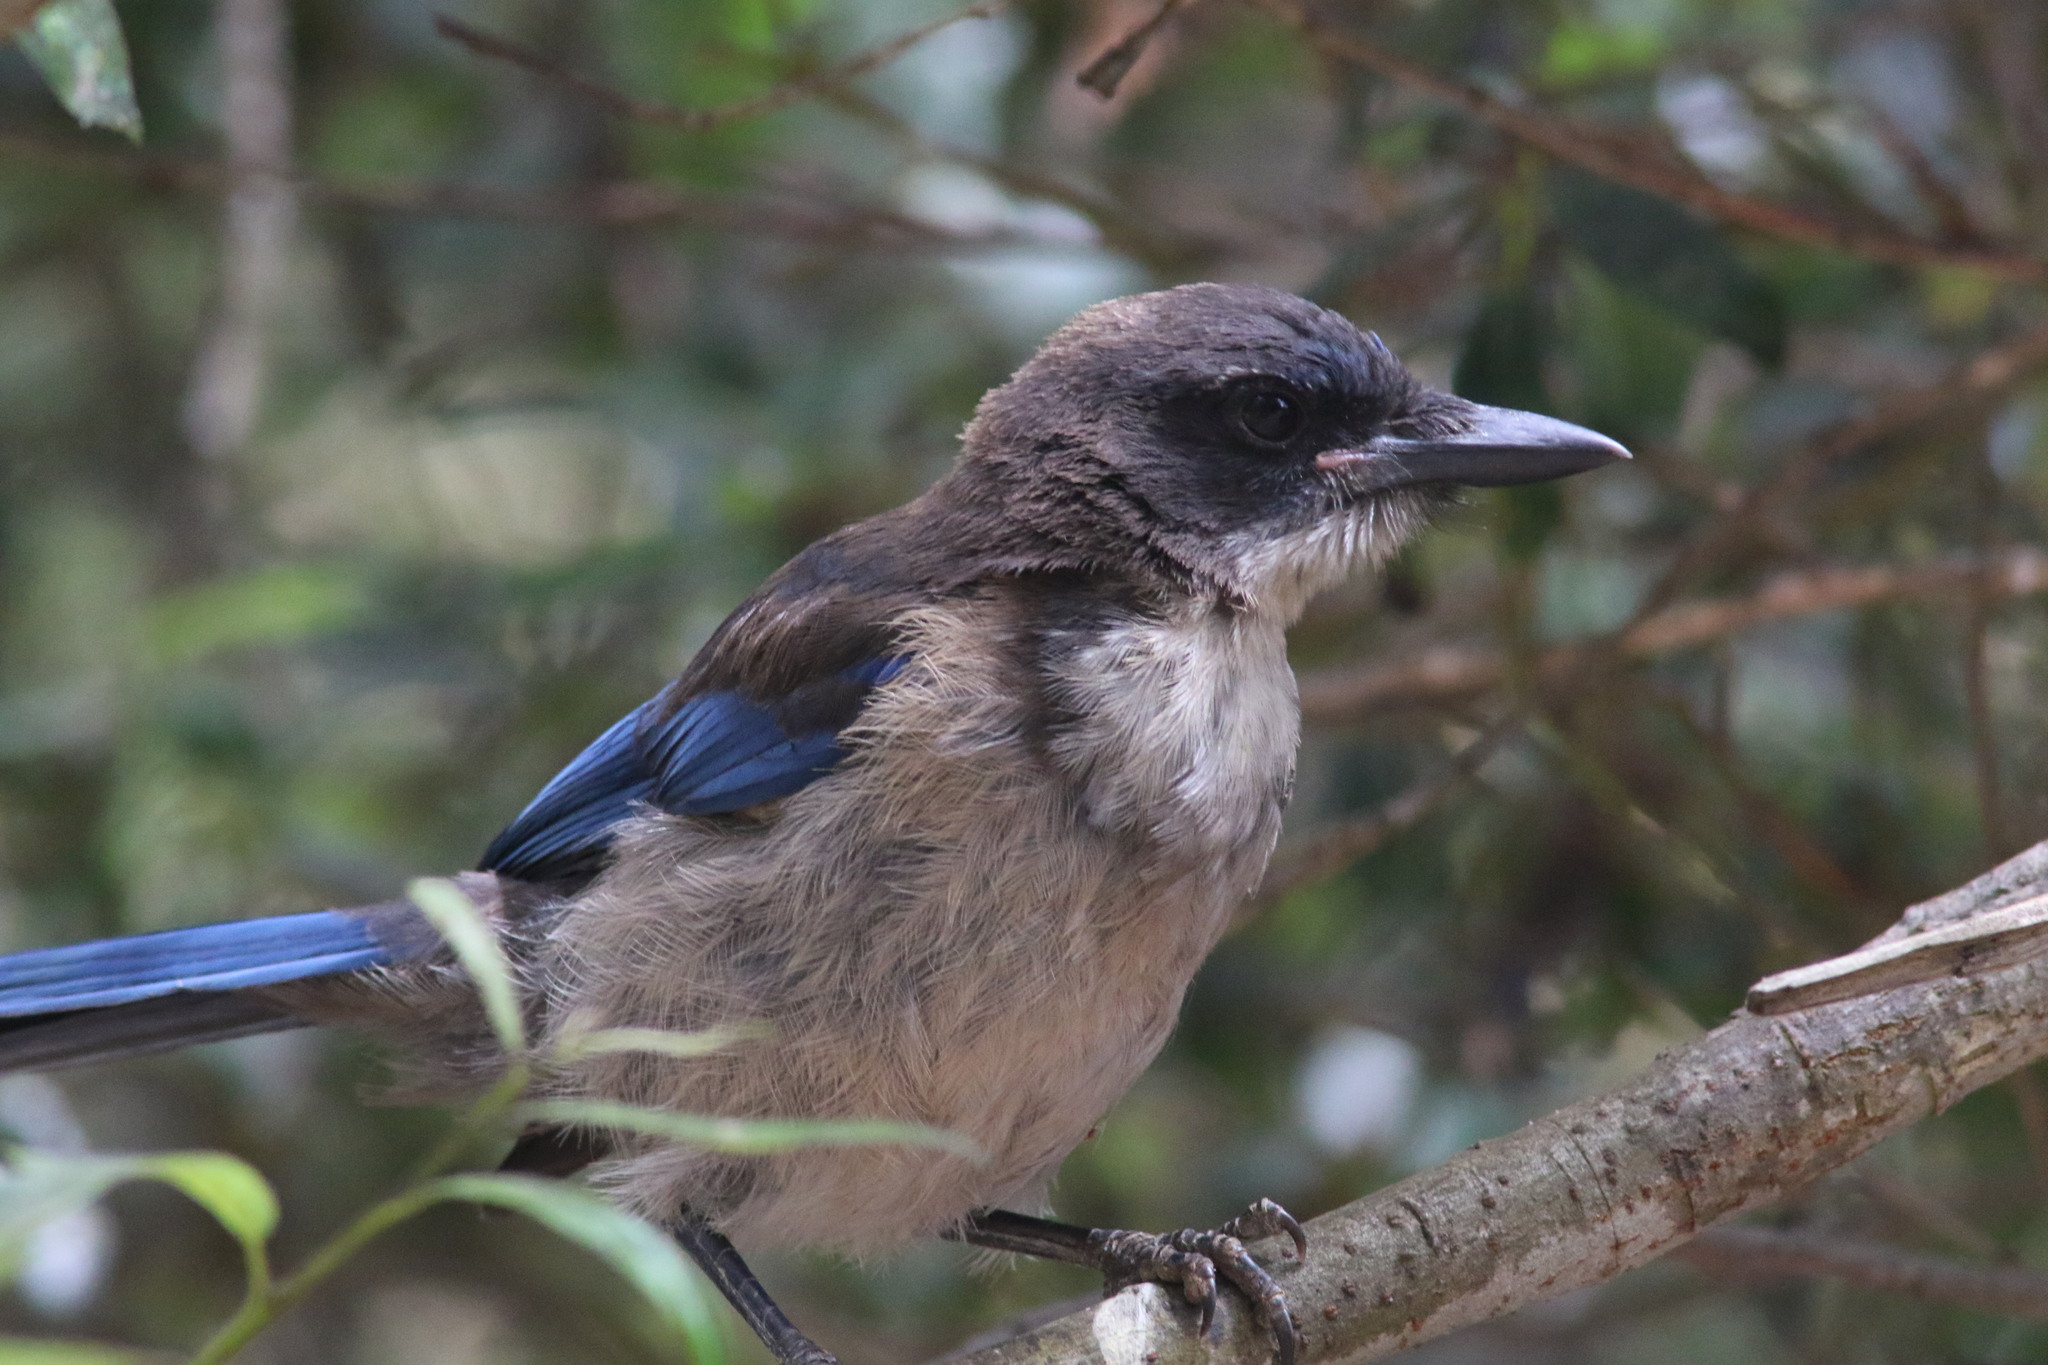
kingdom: Animalia
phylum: Chordata
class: Aves
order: Passeriformes
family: Corvidae
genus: Aphelocoma
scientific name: Aphelocoma insularis
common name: Island scrub-jay
